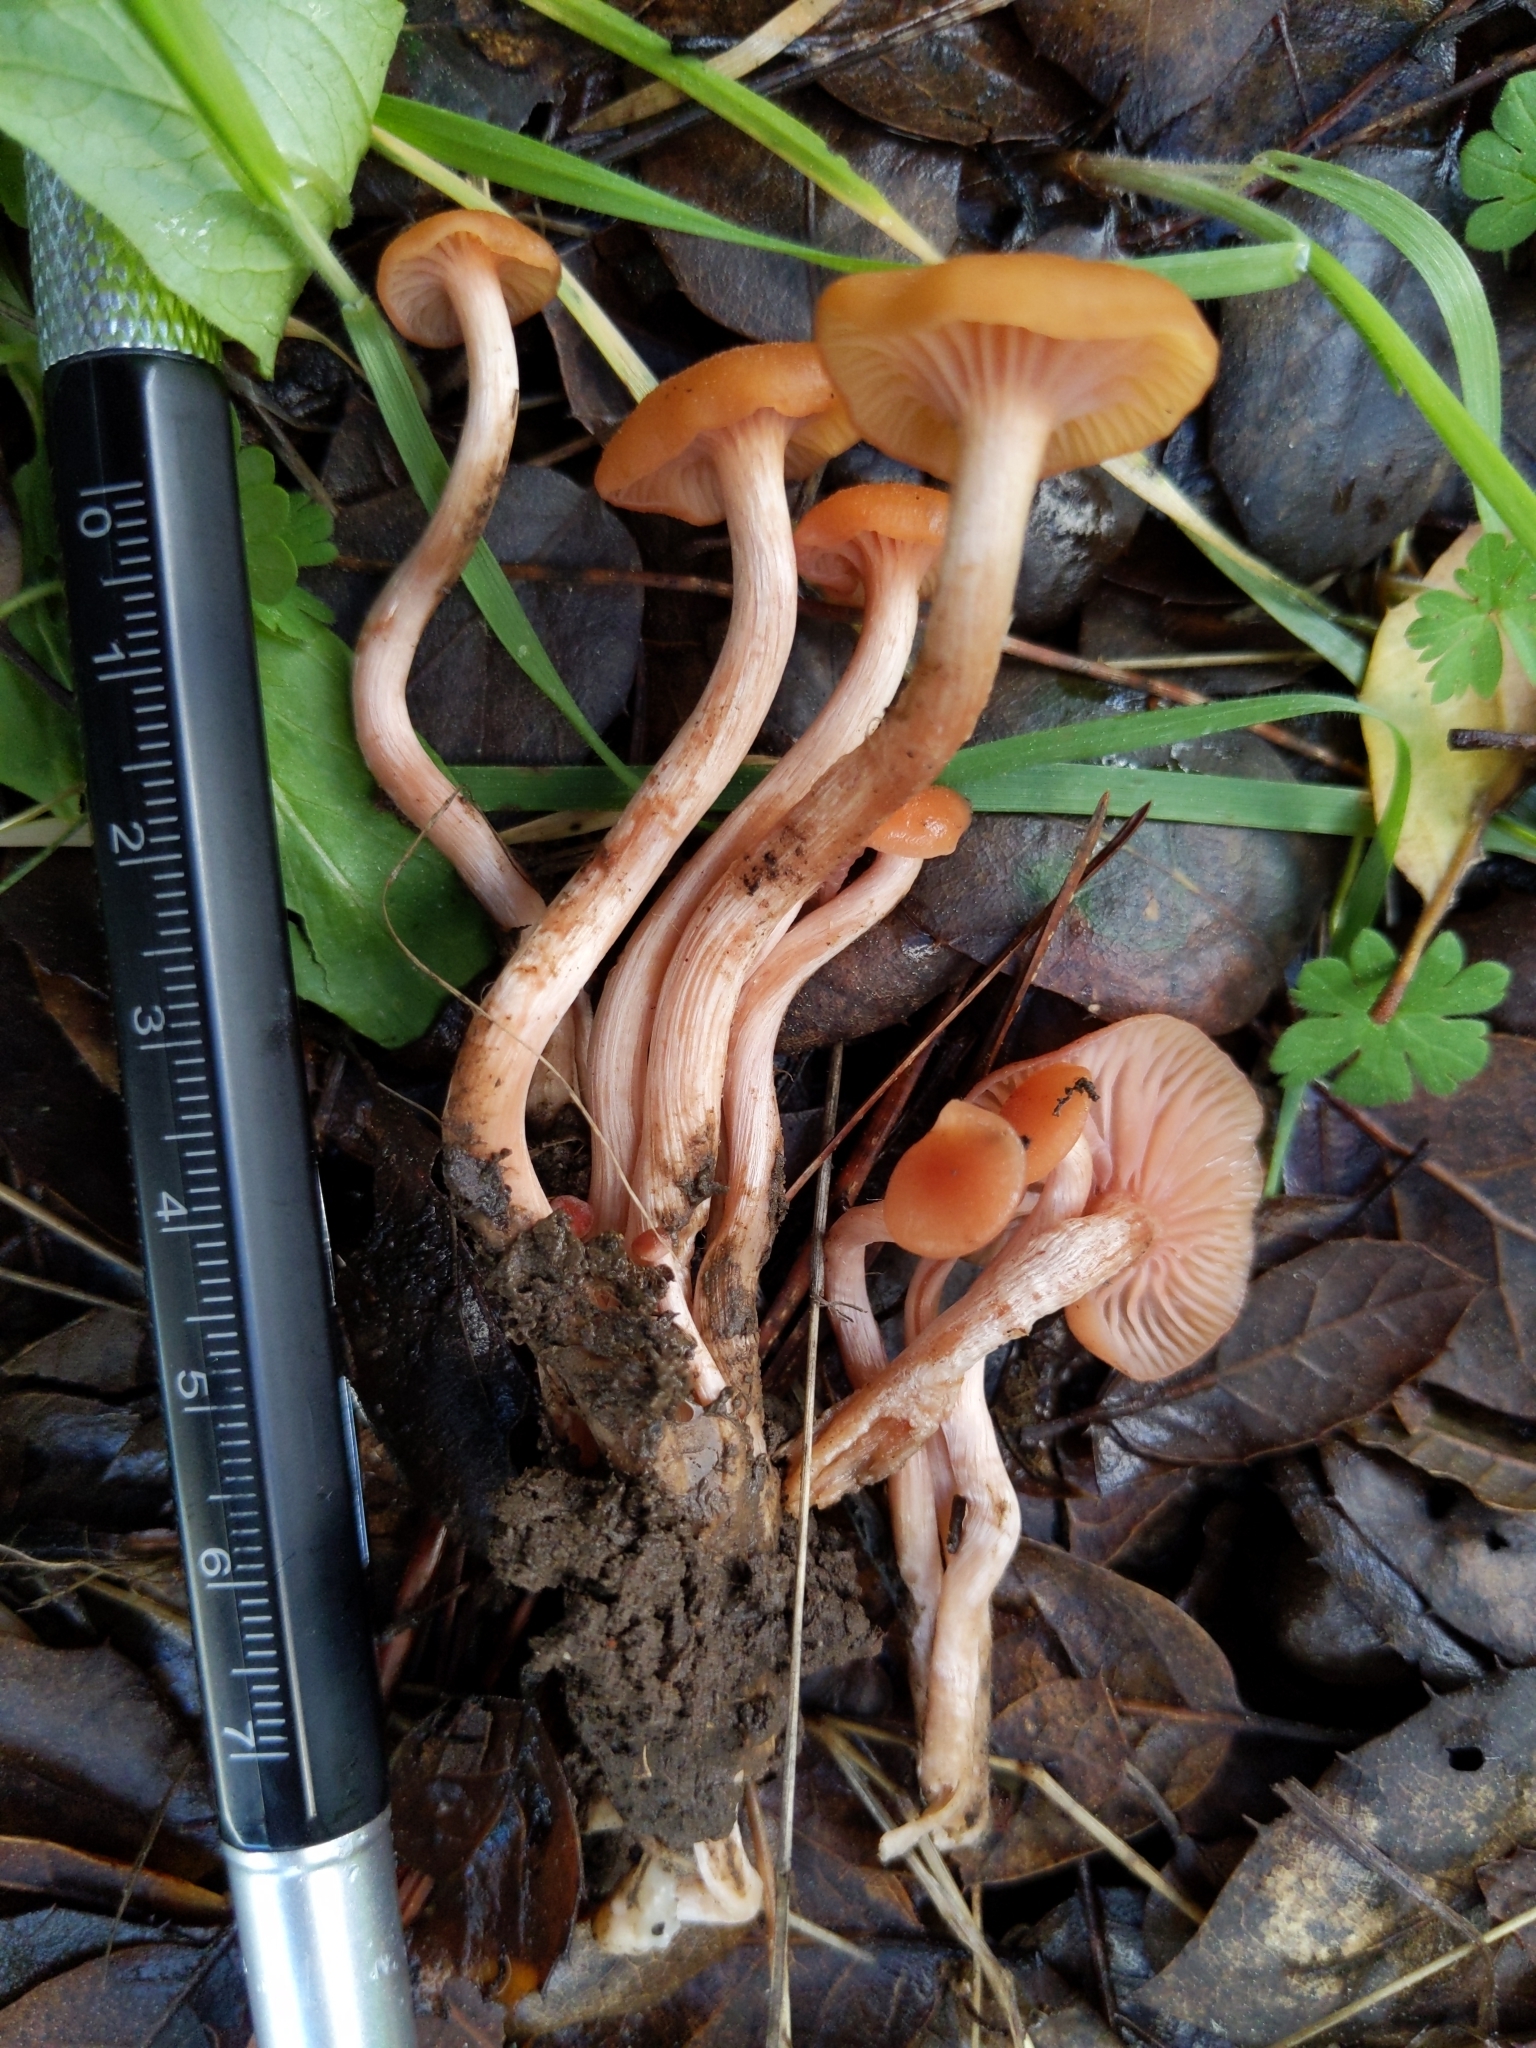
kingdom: Fungi
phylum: Basidiomycota
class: Agaricomycetes
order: Agaricales
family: Hydnangiaceae
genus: Laccaria
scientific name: Laccaria laccata
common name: Deceiver
